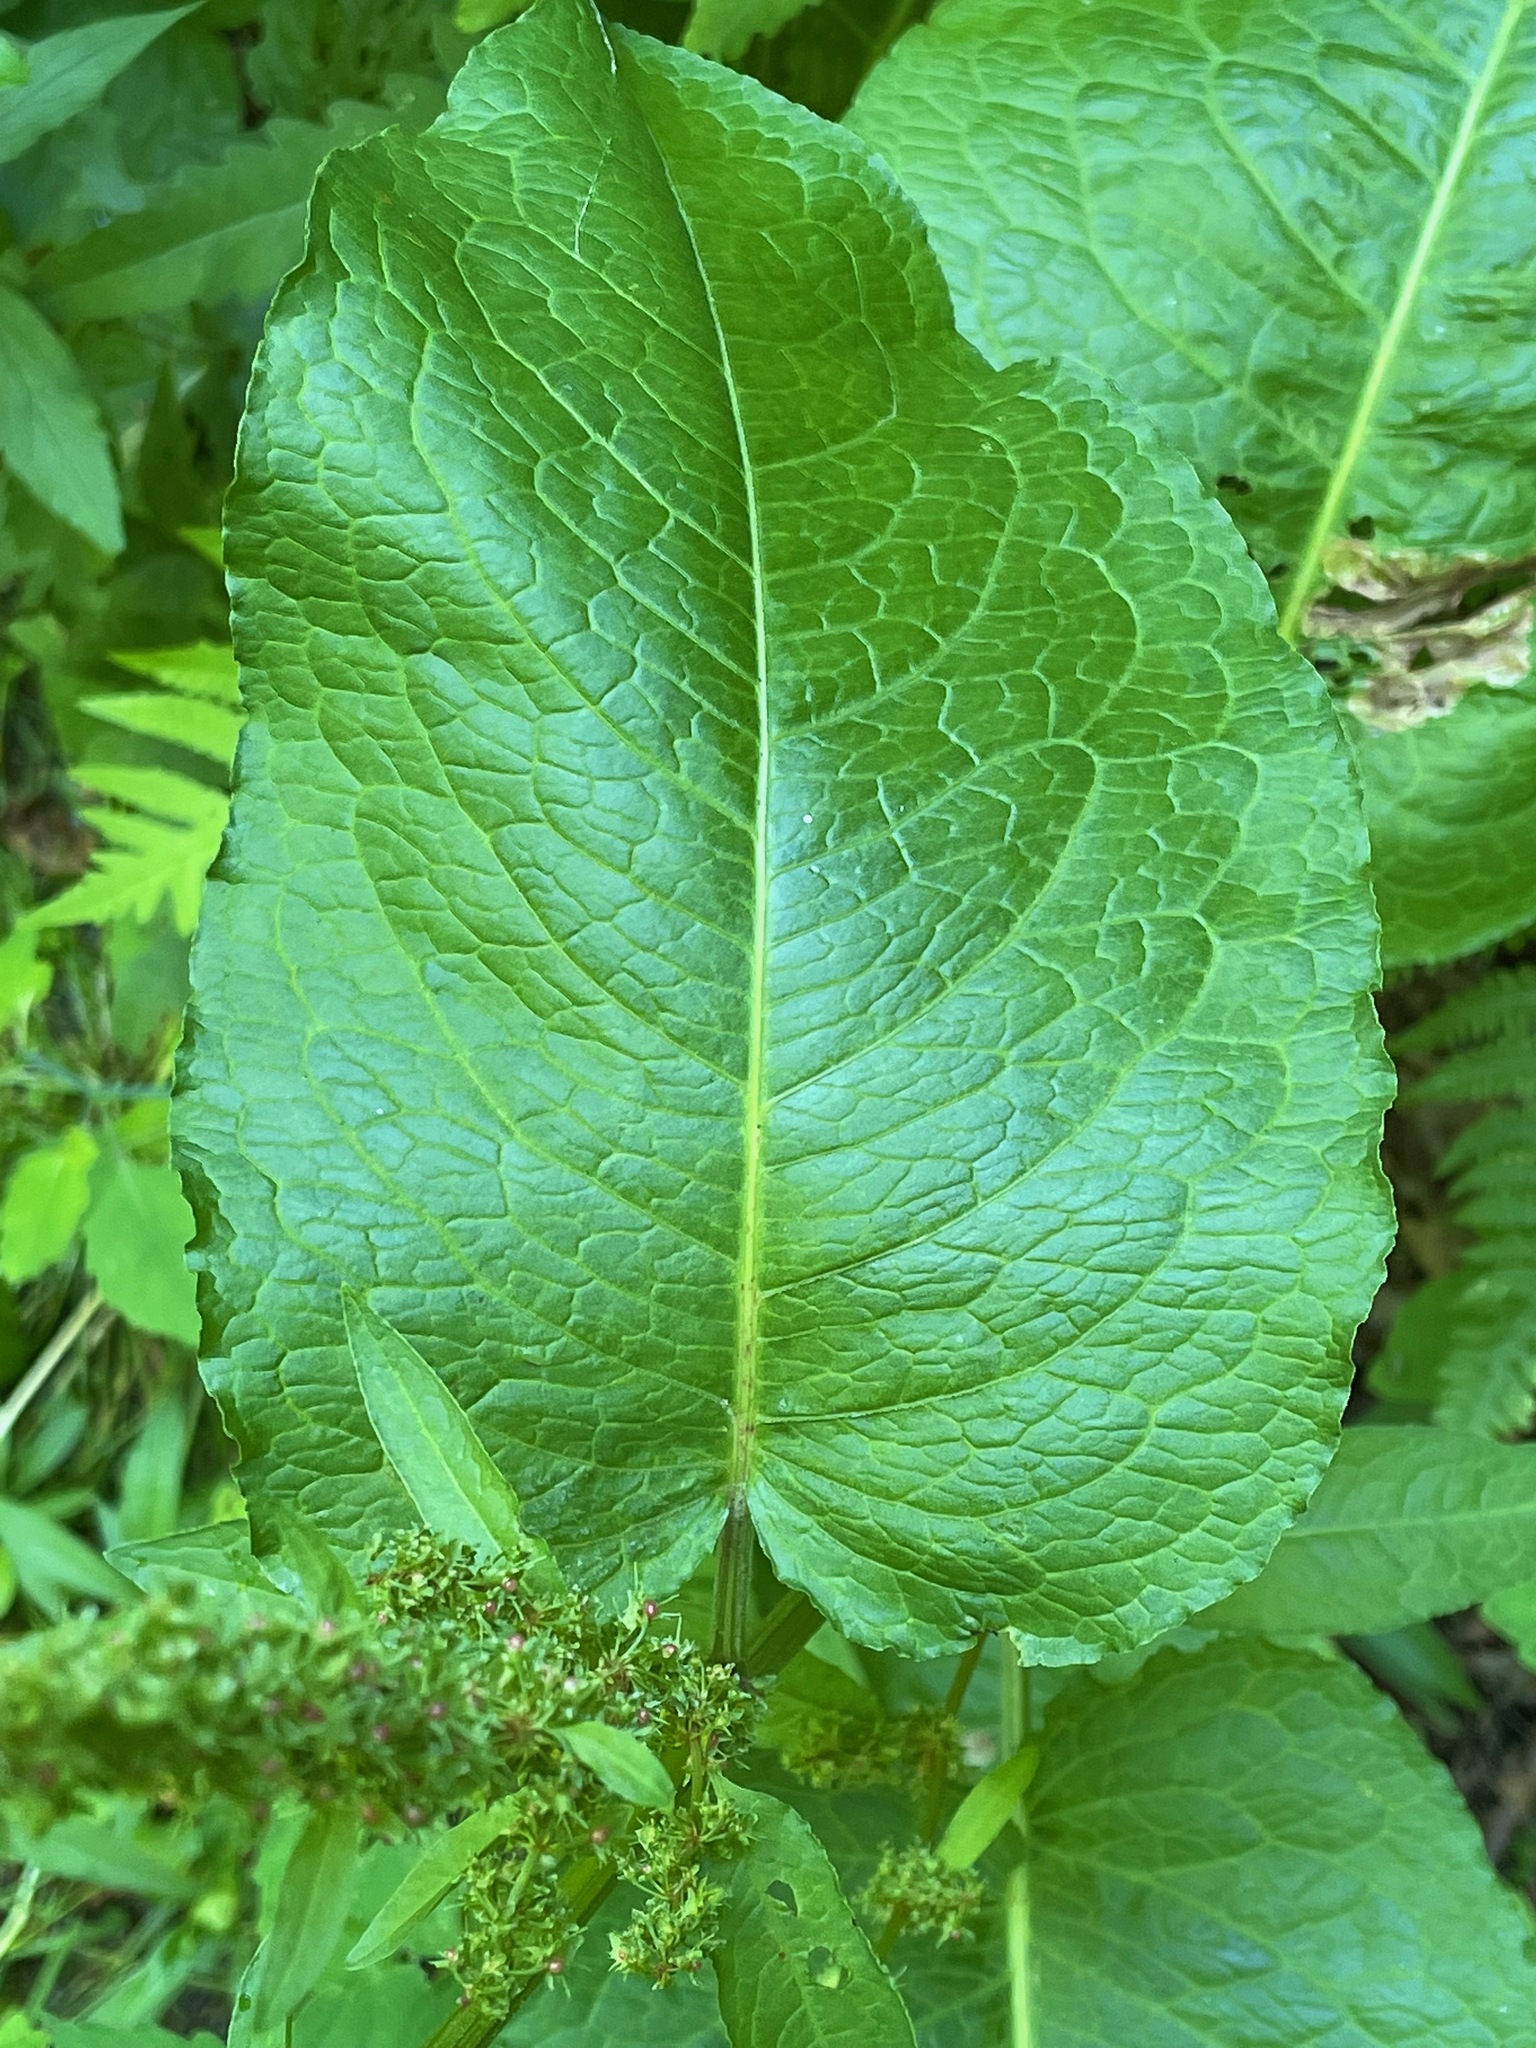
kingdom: Plantae
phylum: Tracheophyta
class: Magnoliopsida
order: Caryophyllales
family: Polygonaceae
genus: Rumex
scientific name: Rumex obtusifolius
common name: Bitter dock
